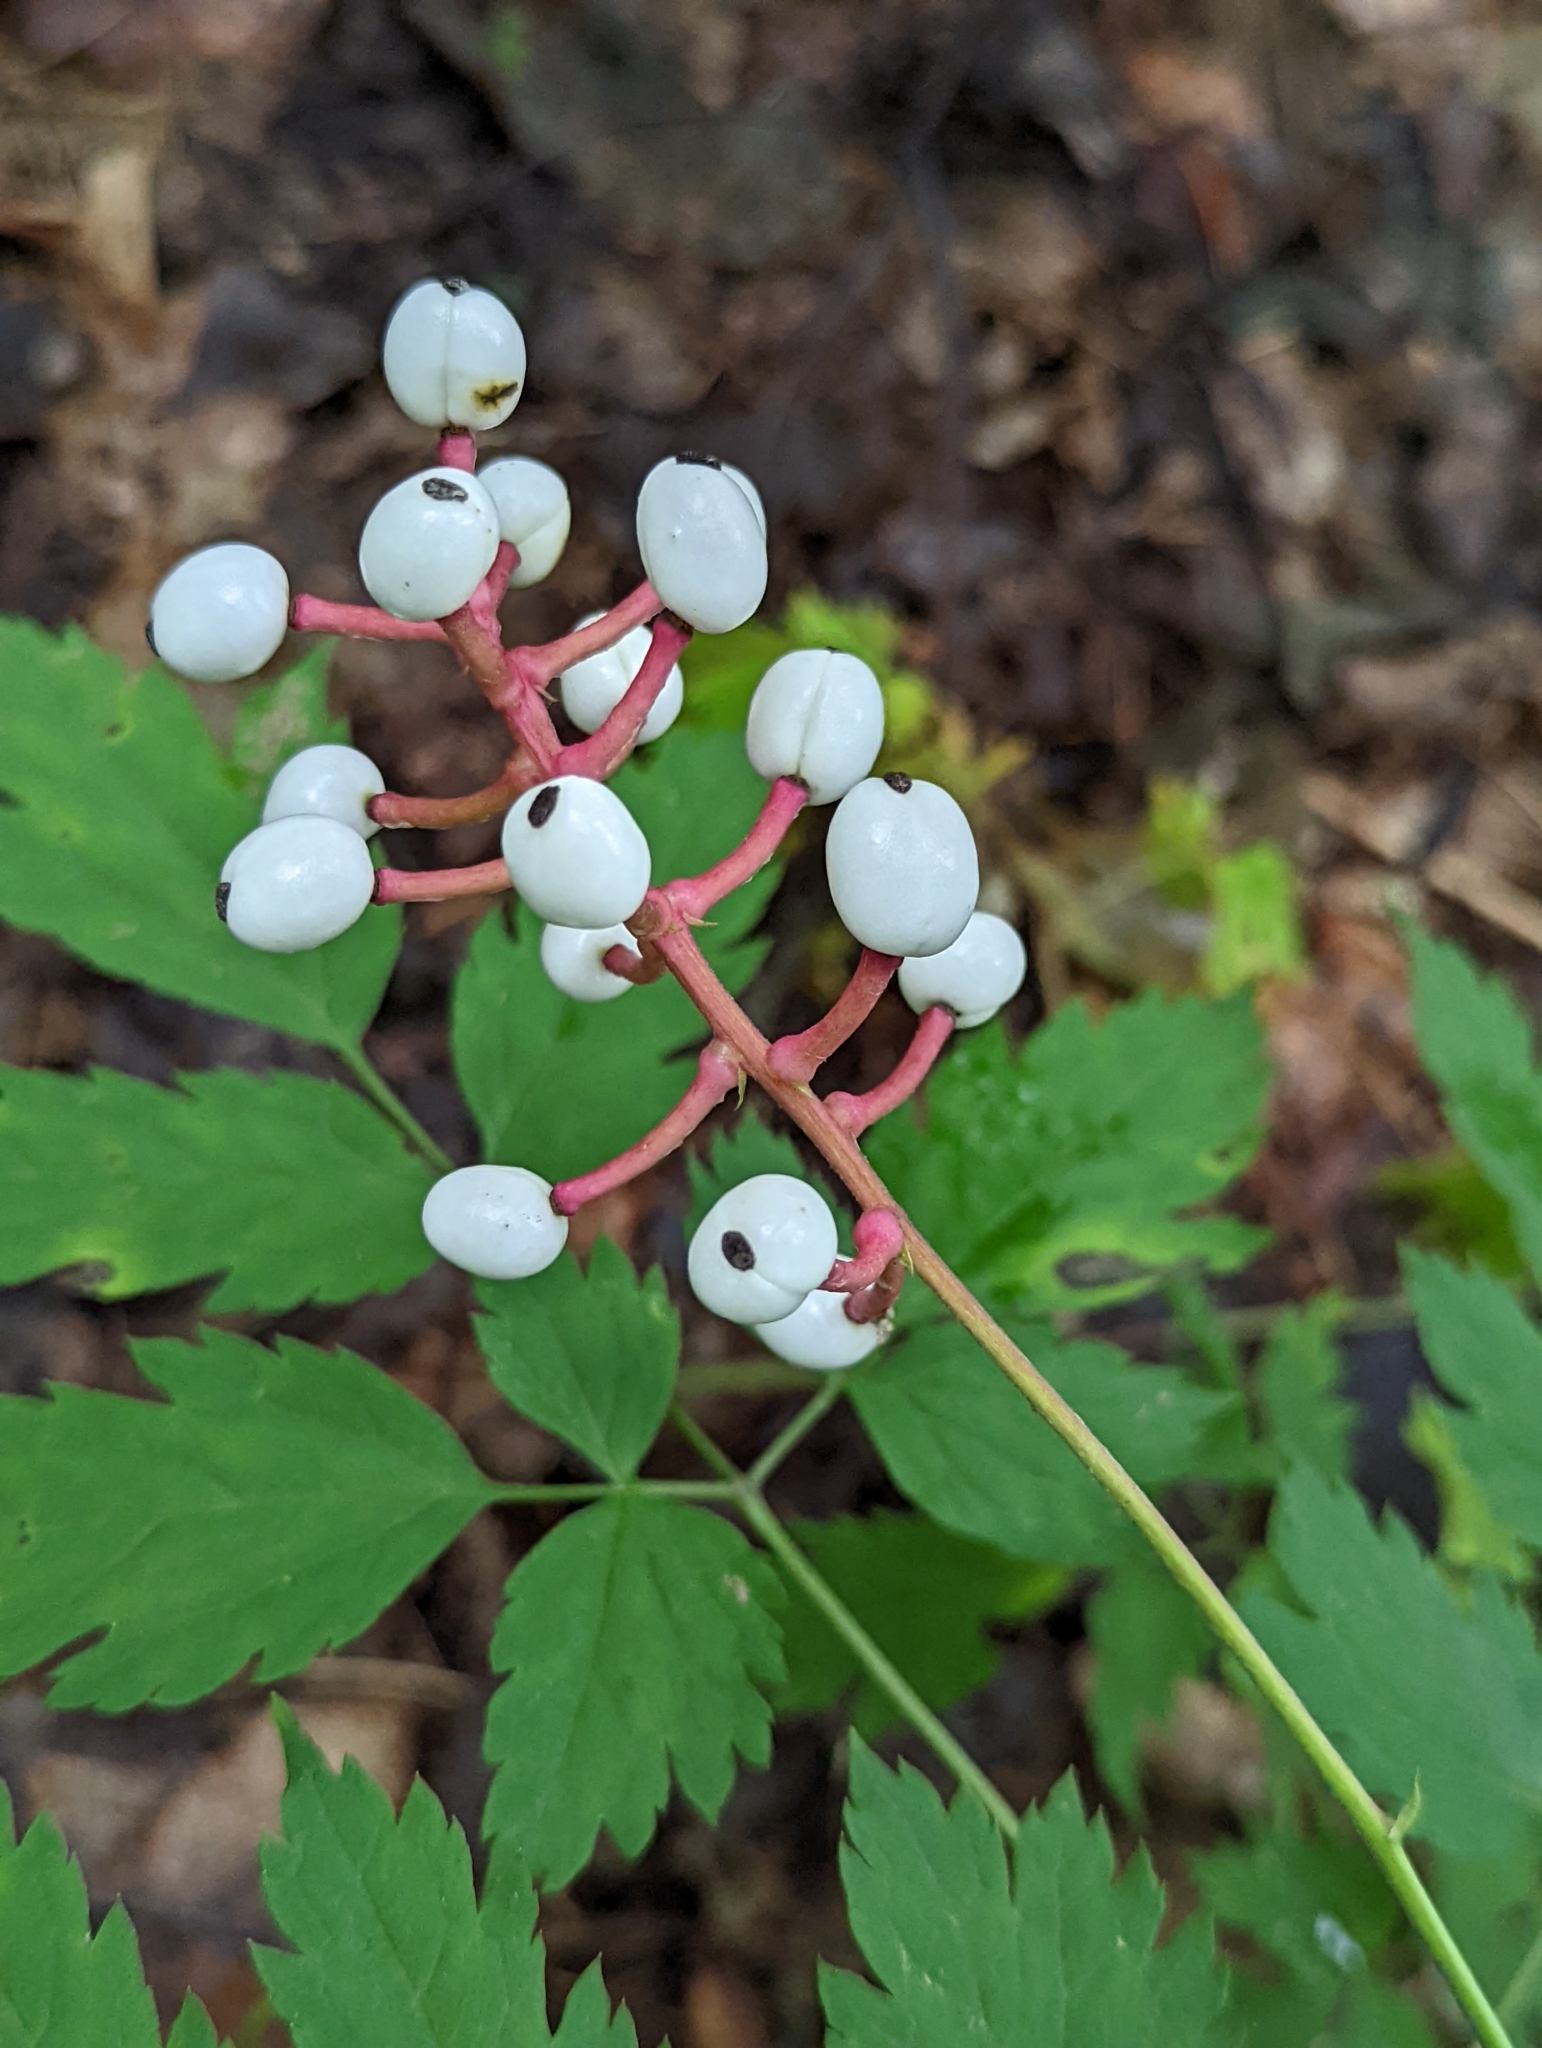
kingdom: Plantae
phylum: Tracheophyta
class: Magnoliopsida
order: Ranunculales
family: Ranunculaceae
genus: Actaea
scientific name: Actaea pachypoda
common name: Doll's-eyes
